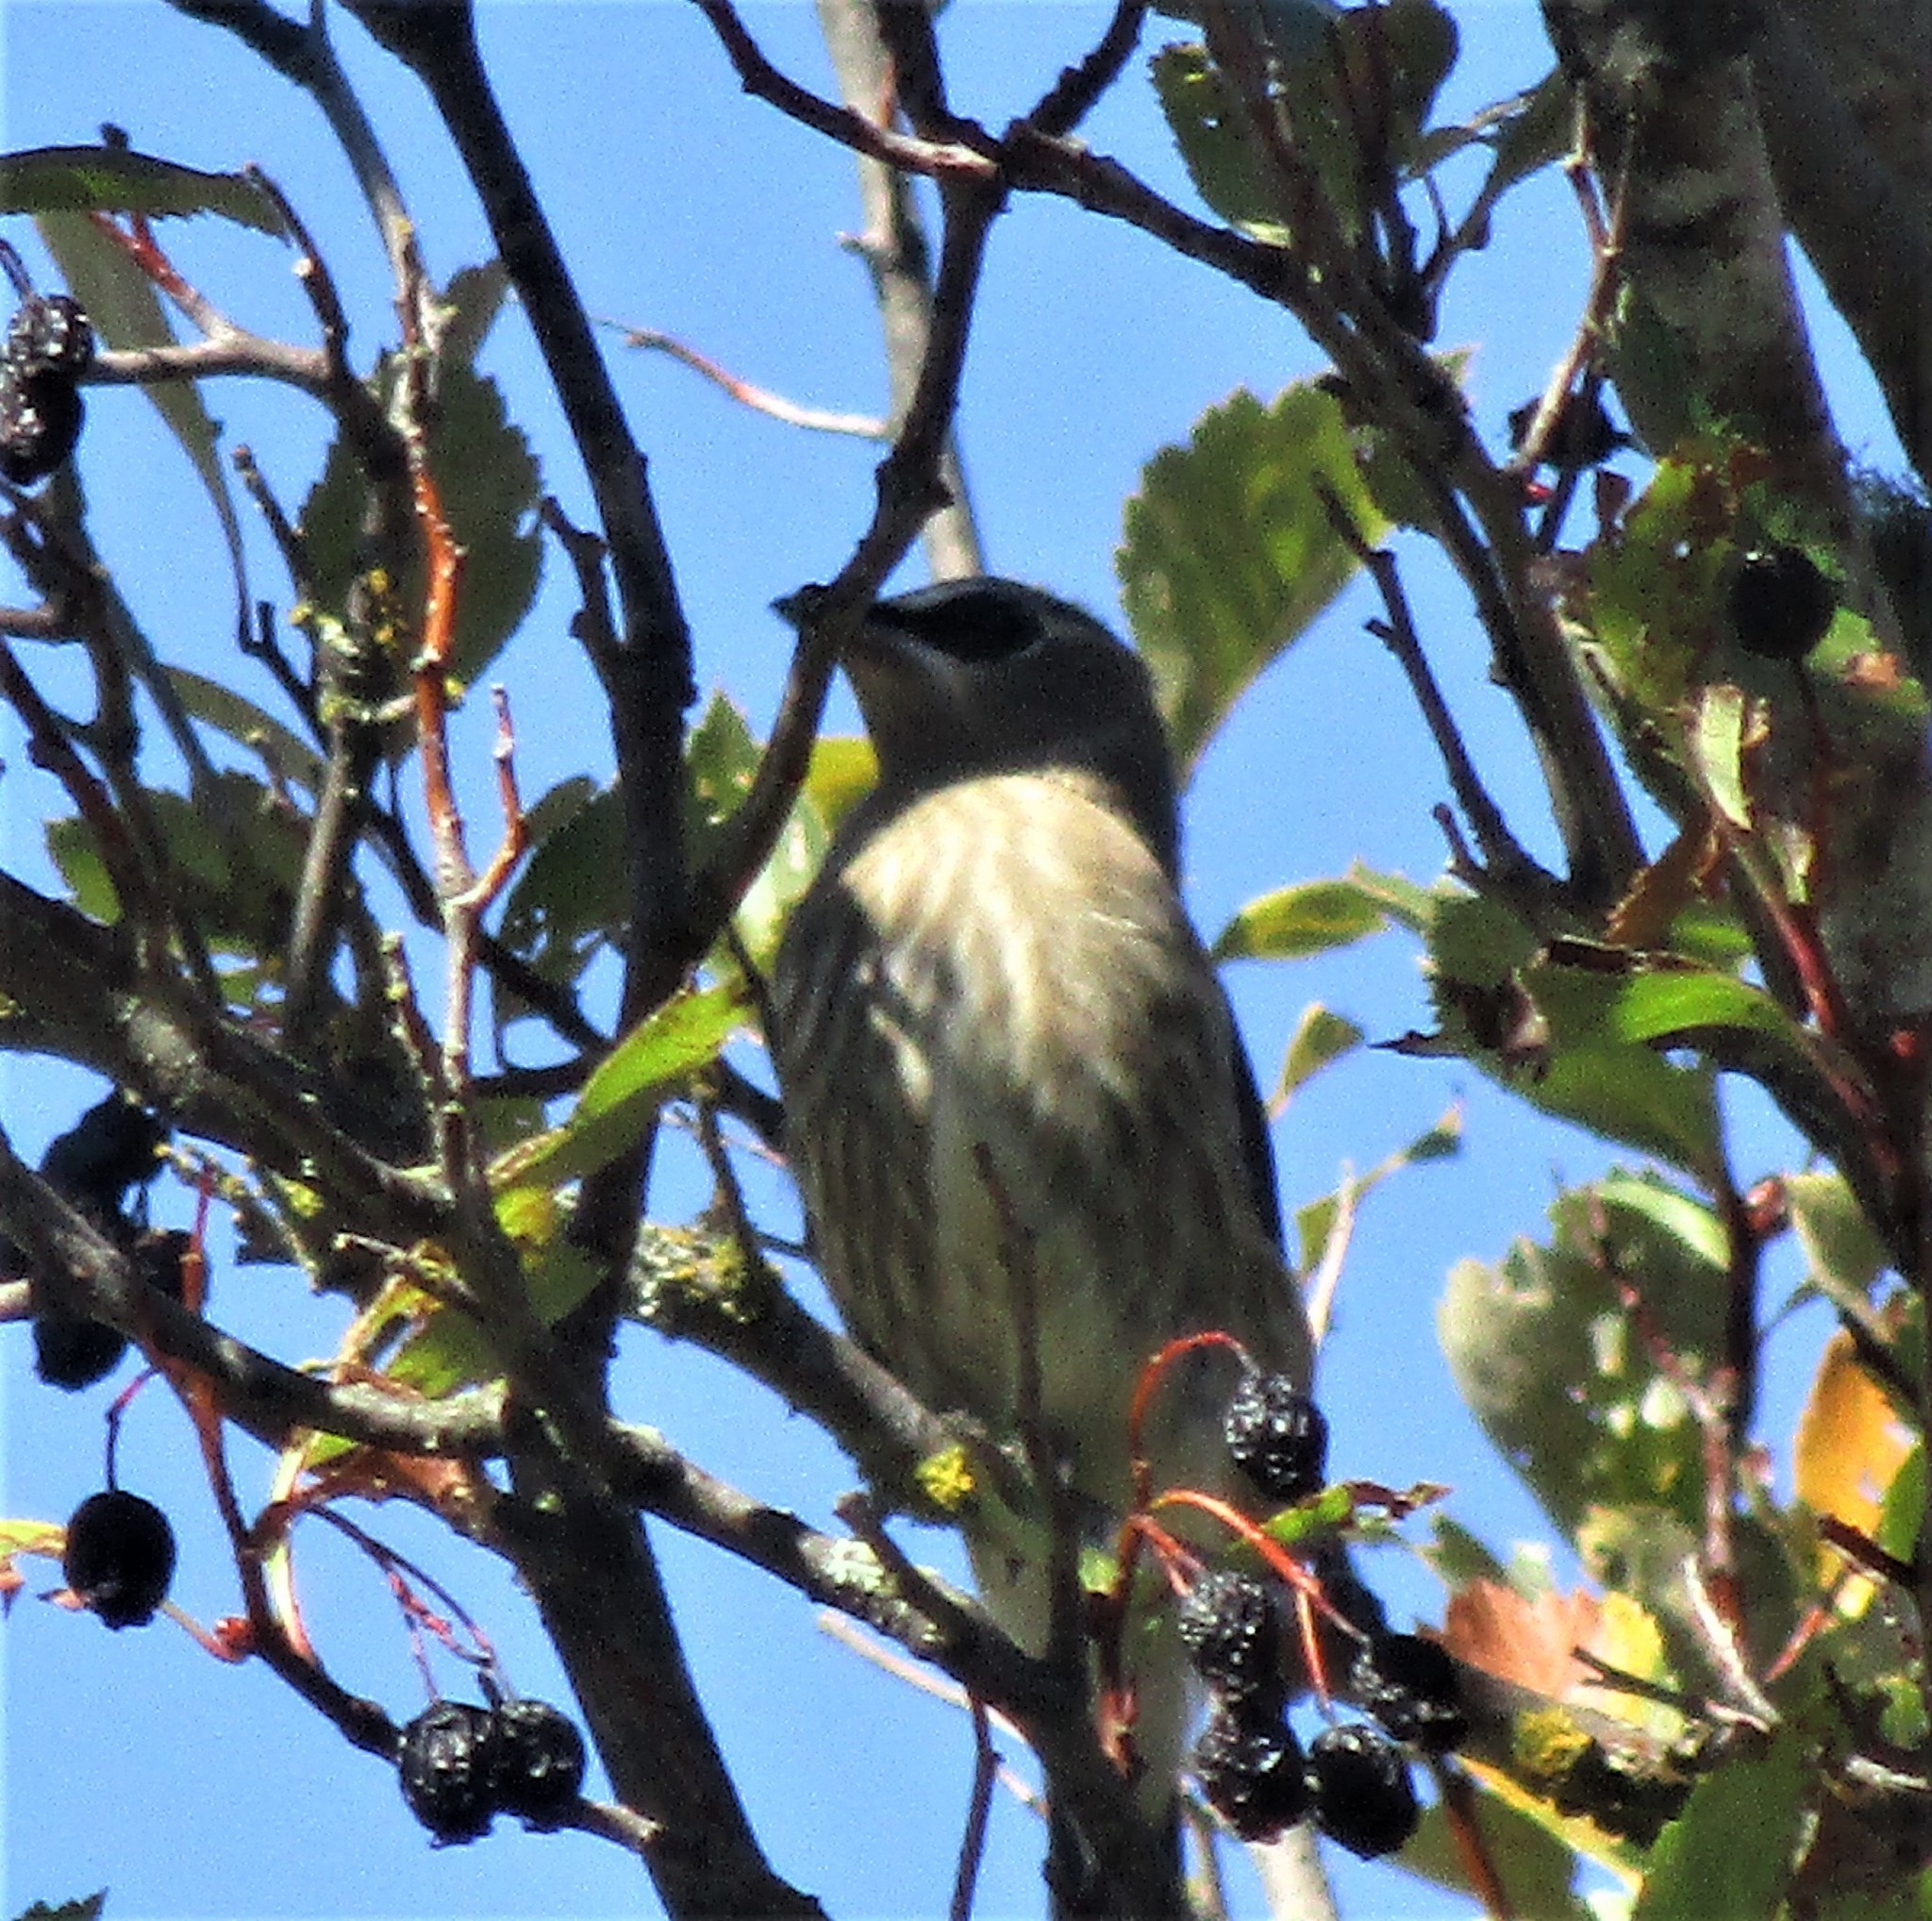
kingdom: Animalia
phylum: Chordata
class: Aves
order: Passeriformes
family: Bombycillidae
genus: Bombycilla
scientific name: Bombycilla cedrorum
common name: Cedar waxwing
